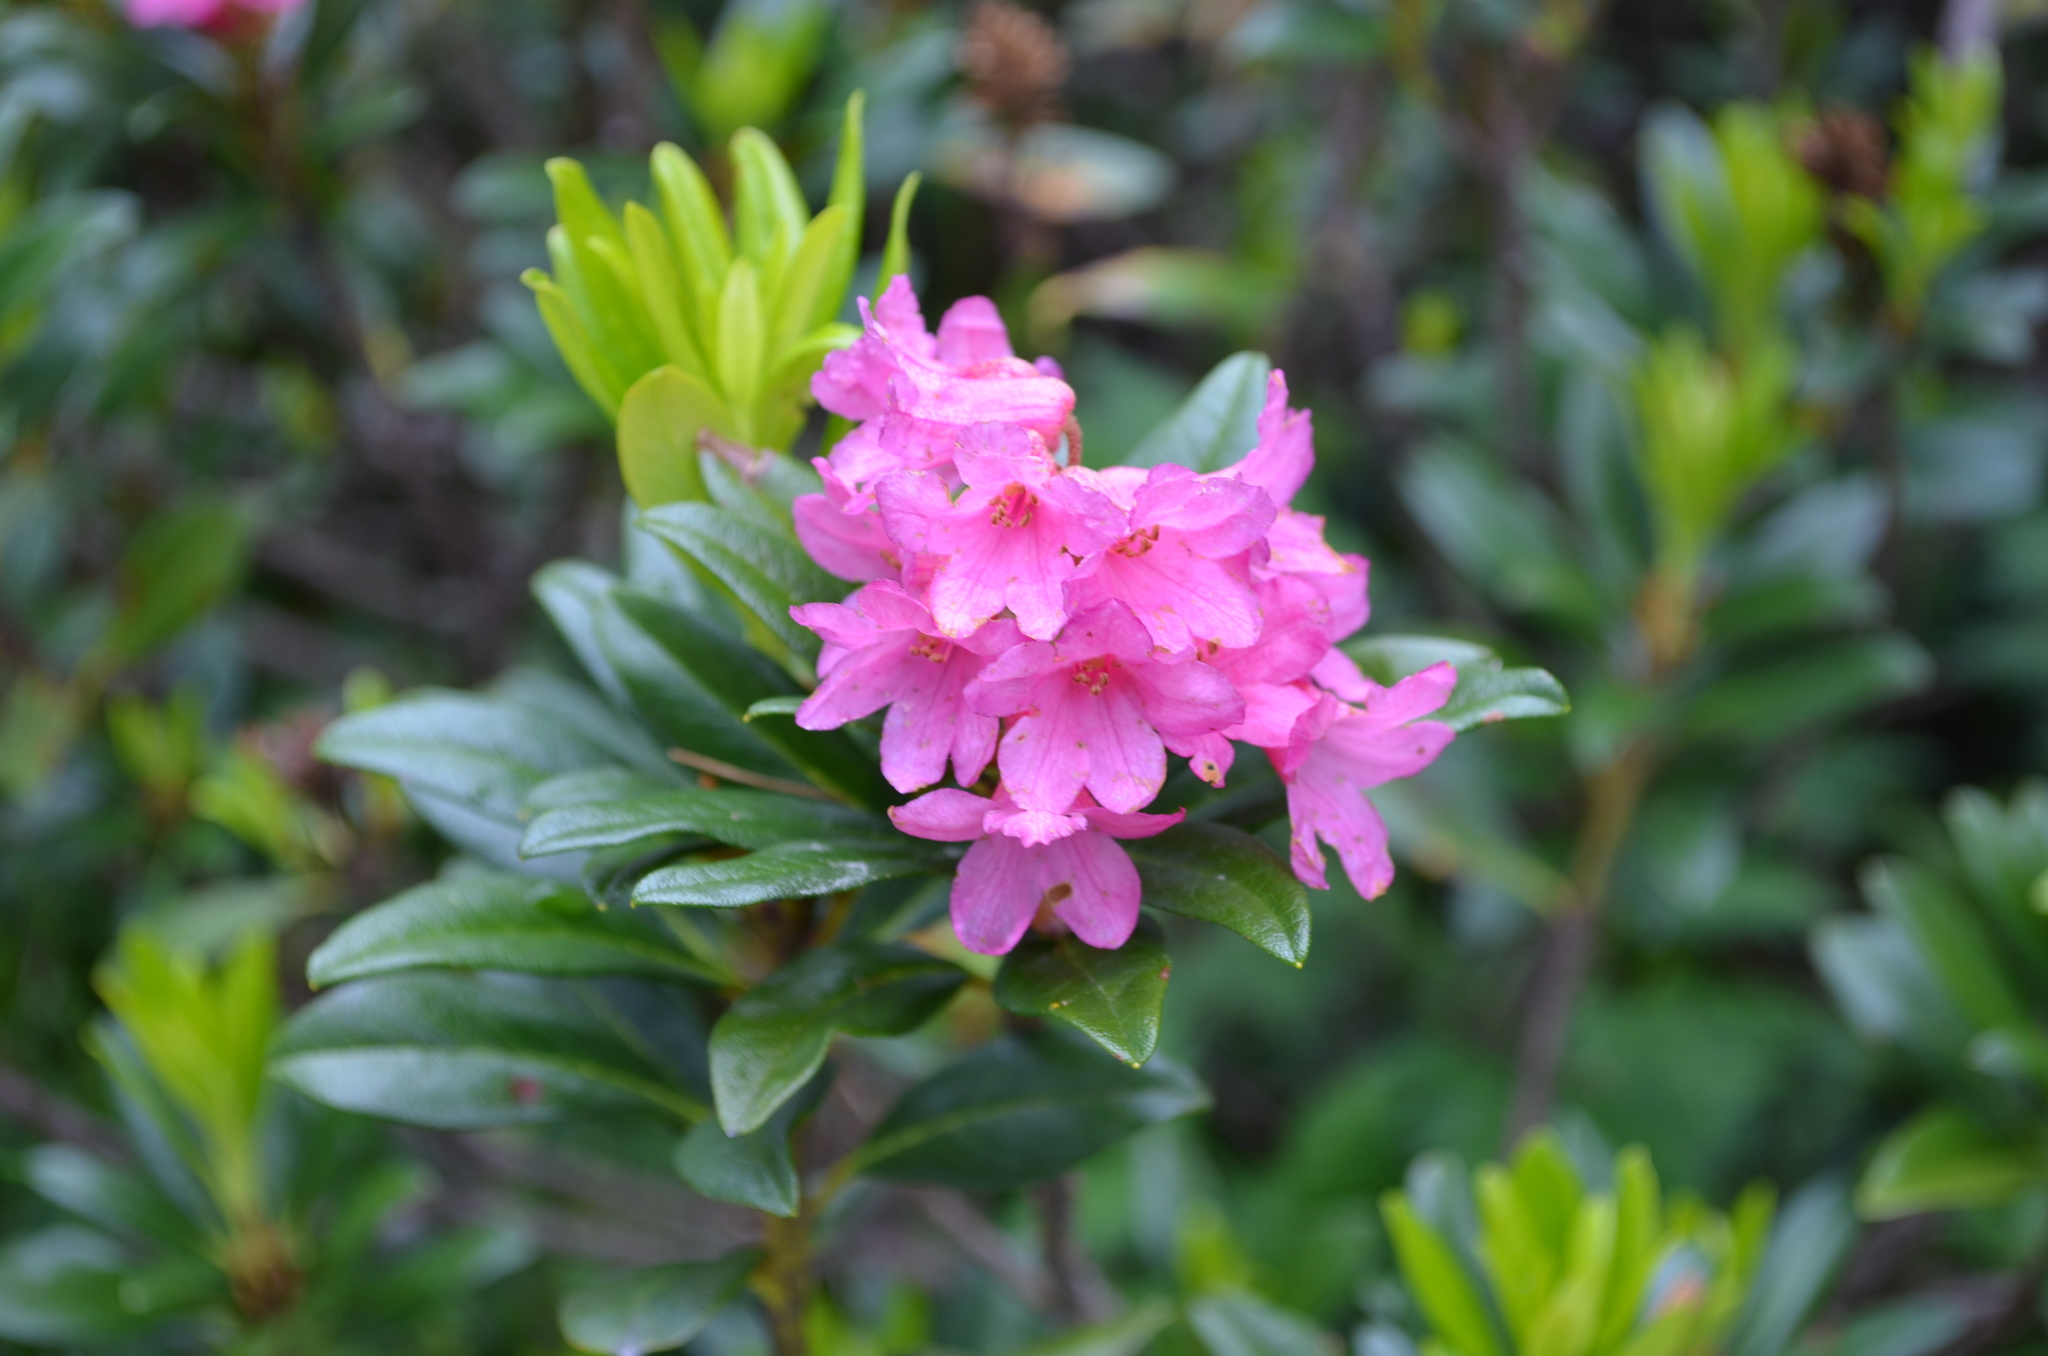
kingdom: Plantae
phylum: Tracheophyta
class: Magnoliopsida
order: Ericales
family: Ericaceae
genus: Rhododendron
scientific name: Rhododendron ferrugineum
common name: Alpenrose
